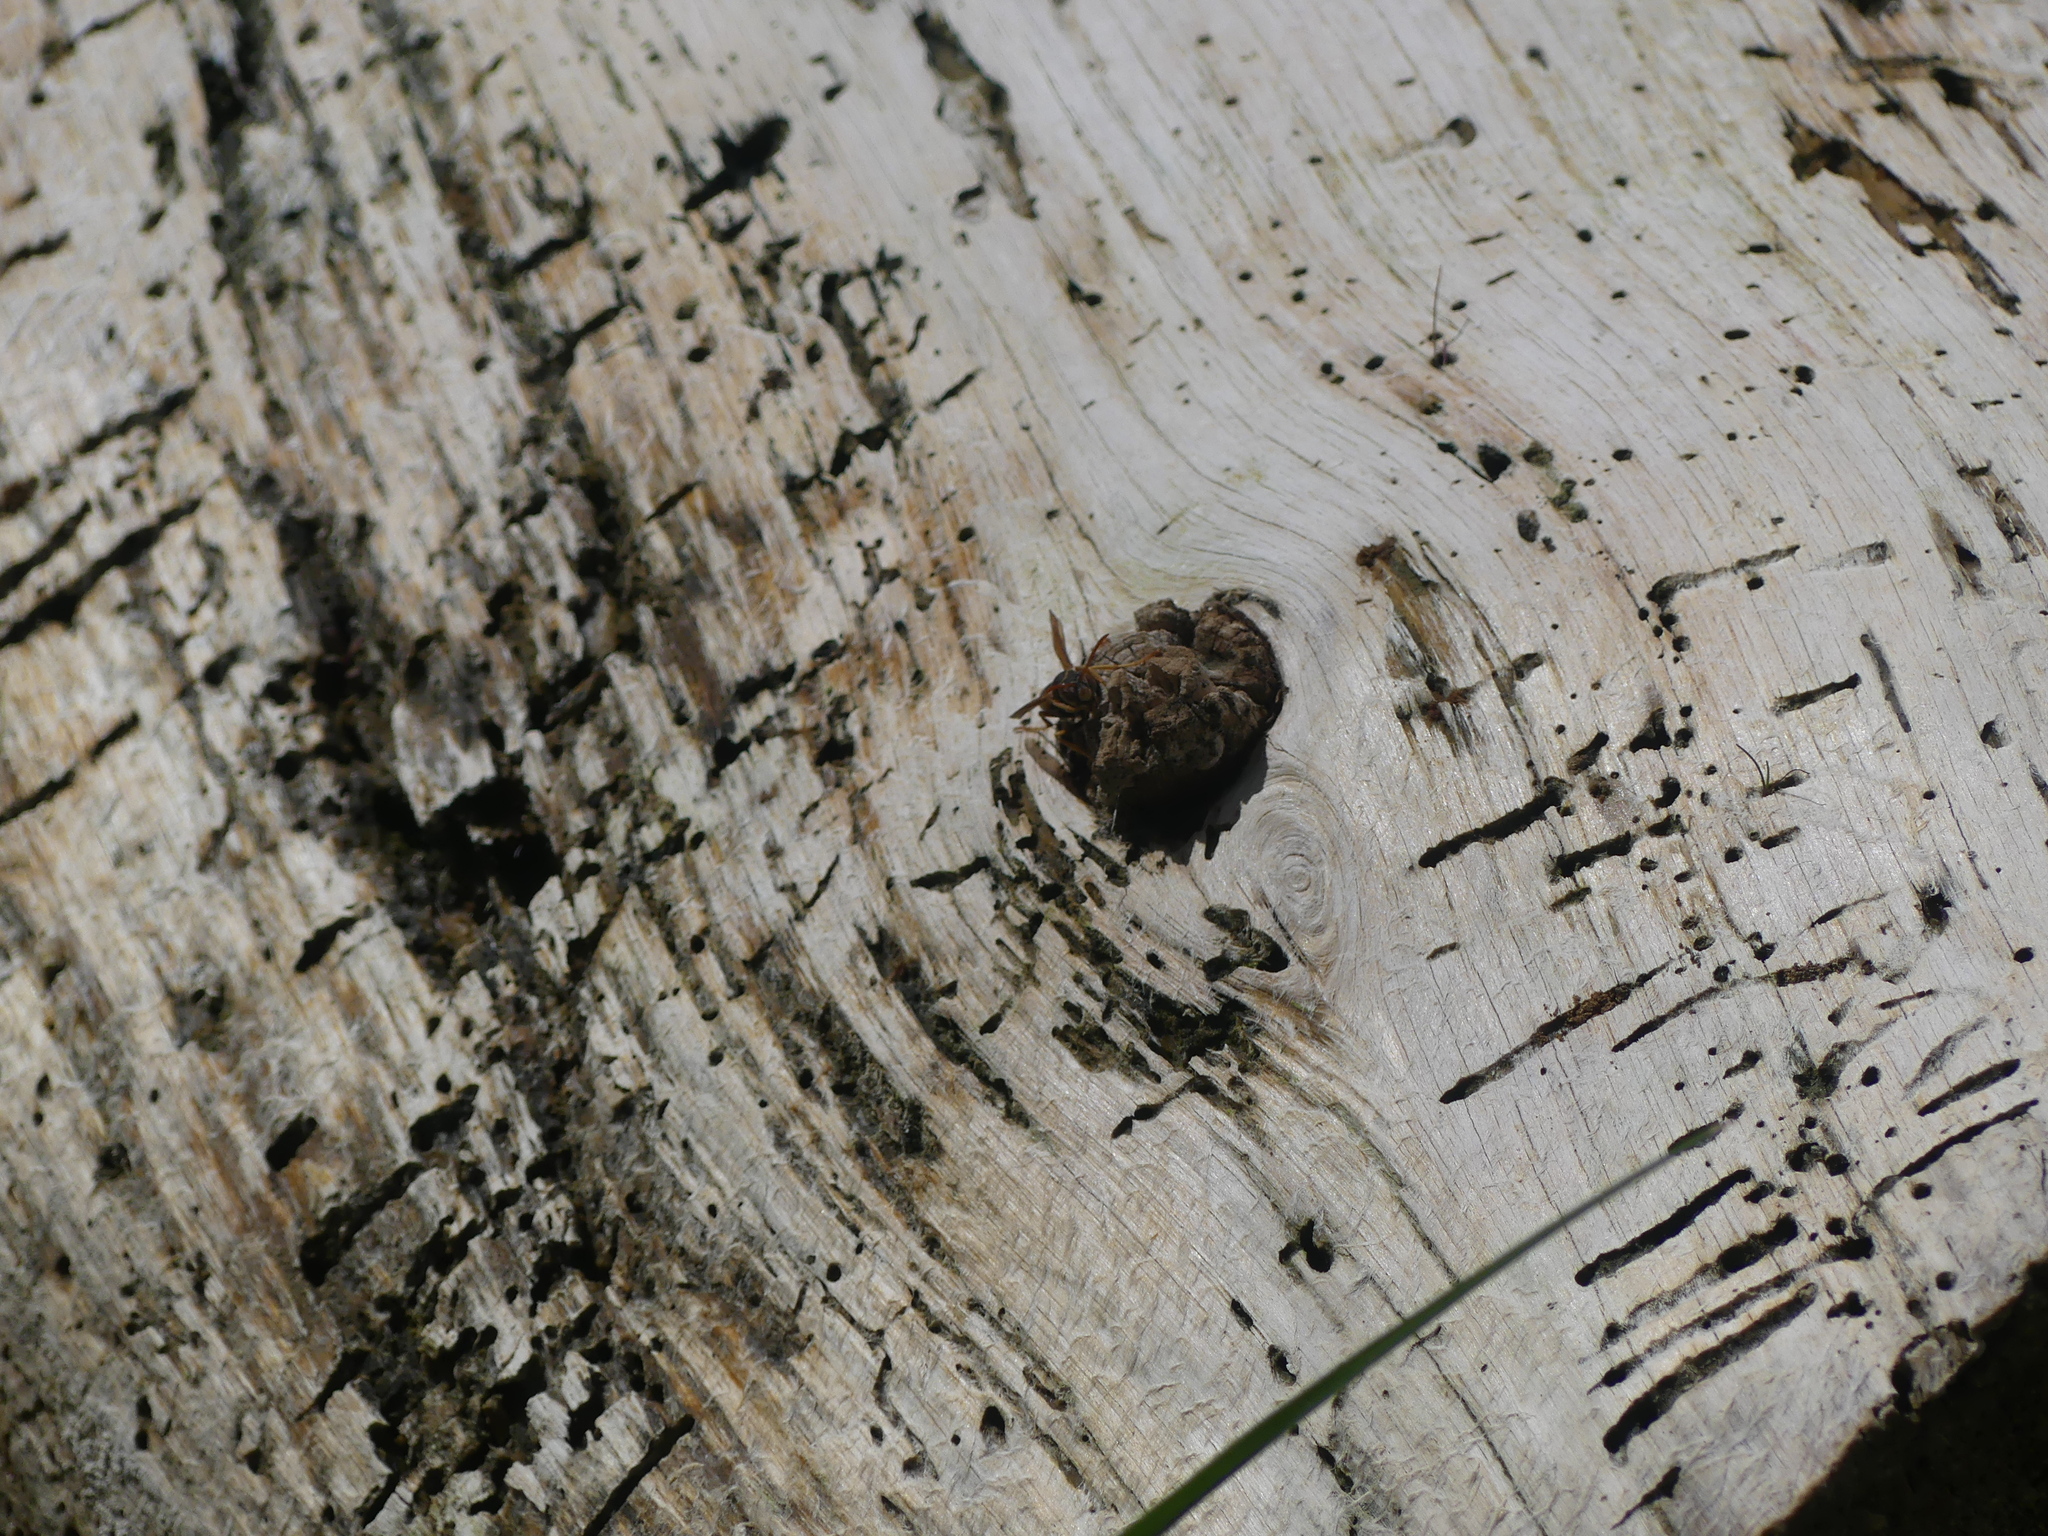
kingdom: Animalia
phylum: Arthropoda
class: Insecta
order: Hymenoptera
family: Eumenidae
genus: Polistes
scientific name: Polistes aurifer
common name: Paper wasp
